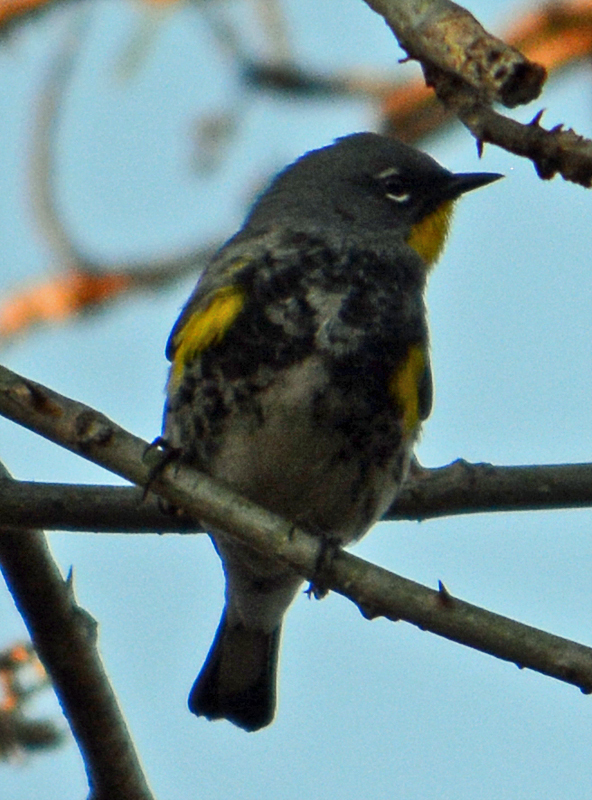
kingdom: Animalia
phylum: Chordata
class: Aves
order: Passeriformes
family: Parulidae
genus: Setophaga
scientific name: Setophaga auduboni
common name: Audubon's warbler
